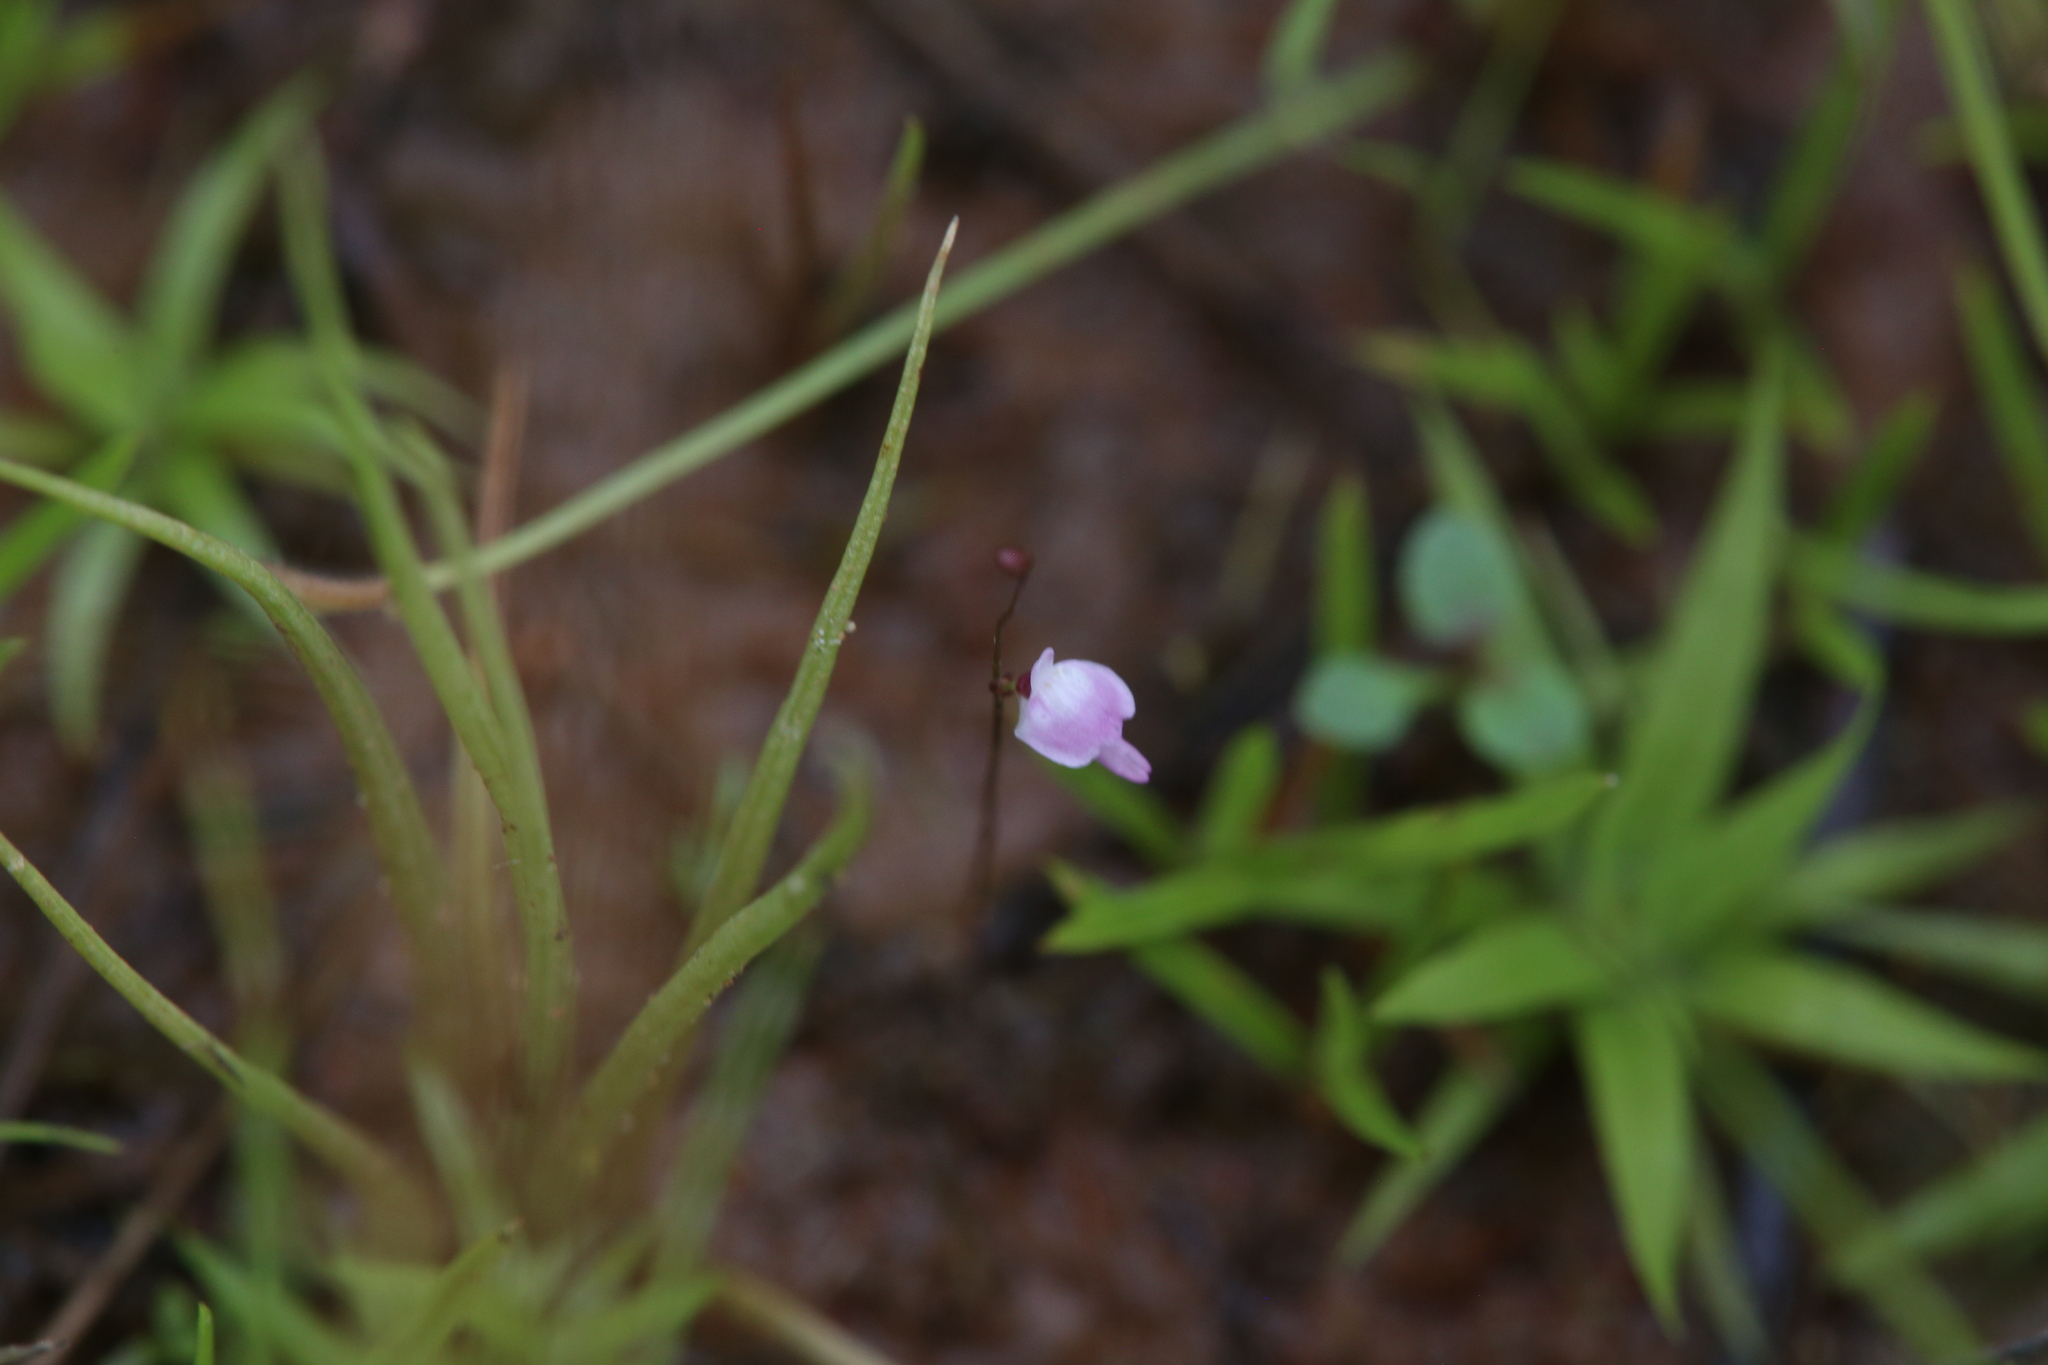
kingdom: Plantae
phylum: Tracheophyta
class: Magnoliopsida
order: Lamiales
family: Lentibulariaceae
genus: Utricularia
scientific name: Utricularia minutissima
